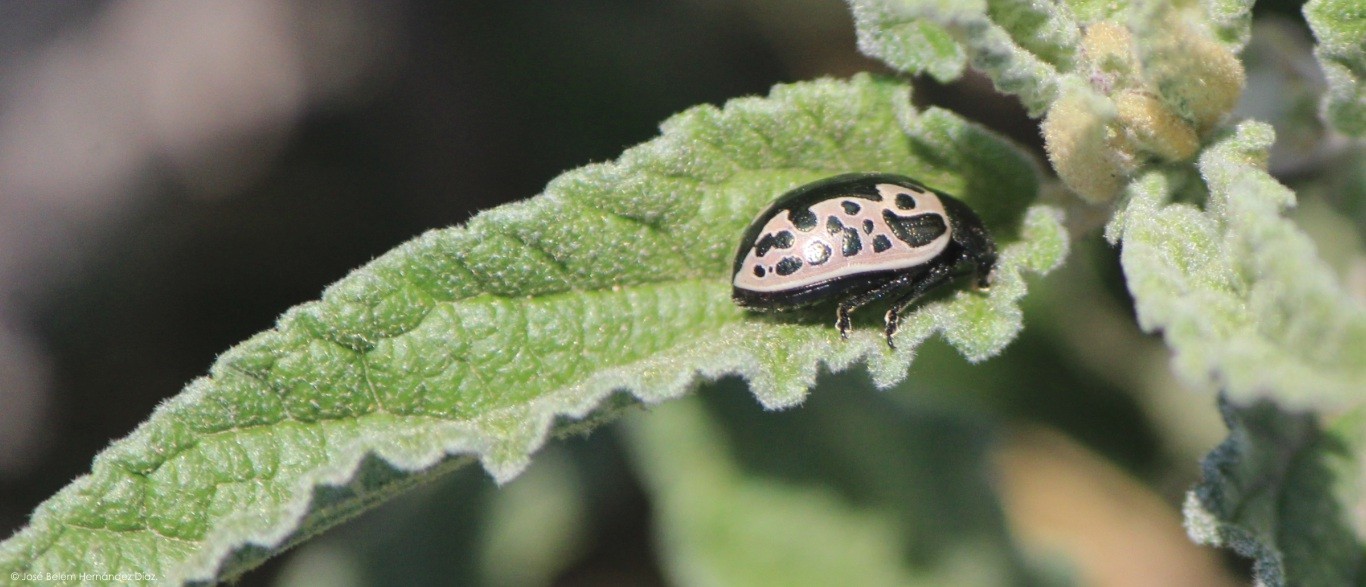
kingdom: Animalia
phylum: Arthropoda
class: Insecta
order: Coleoptera
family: Chrysomelidae
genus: Calligrapha
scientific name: Calligrapha diversa
